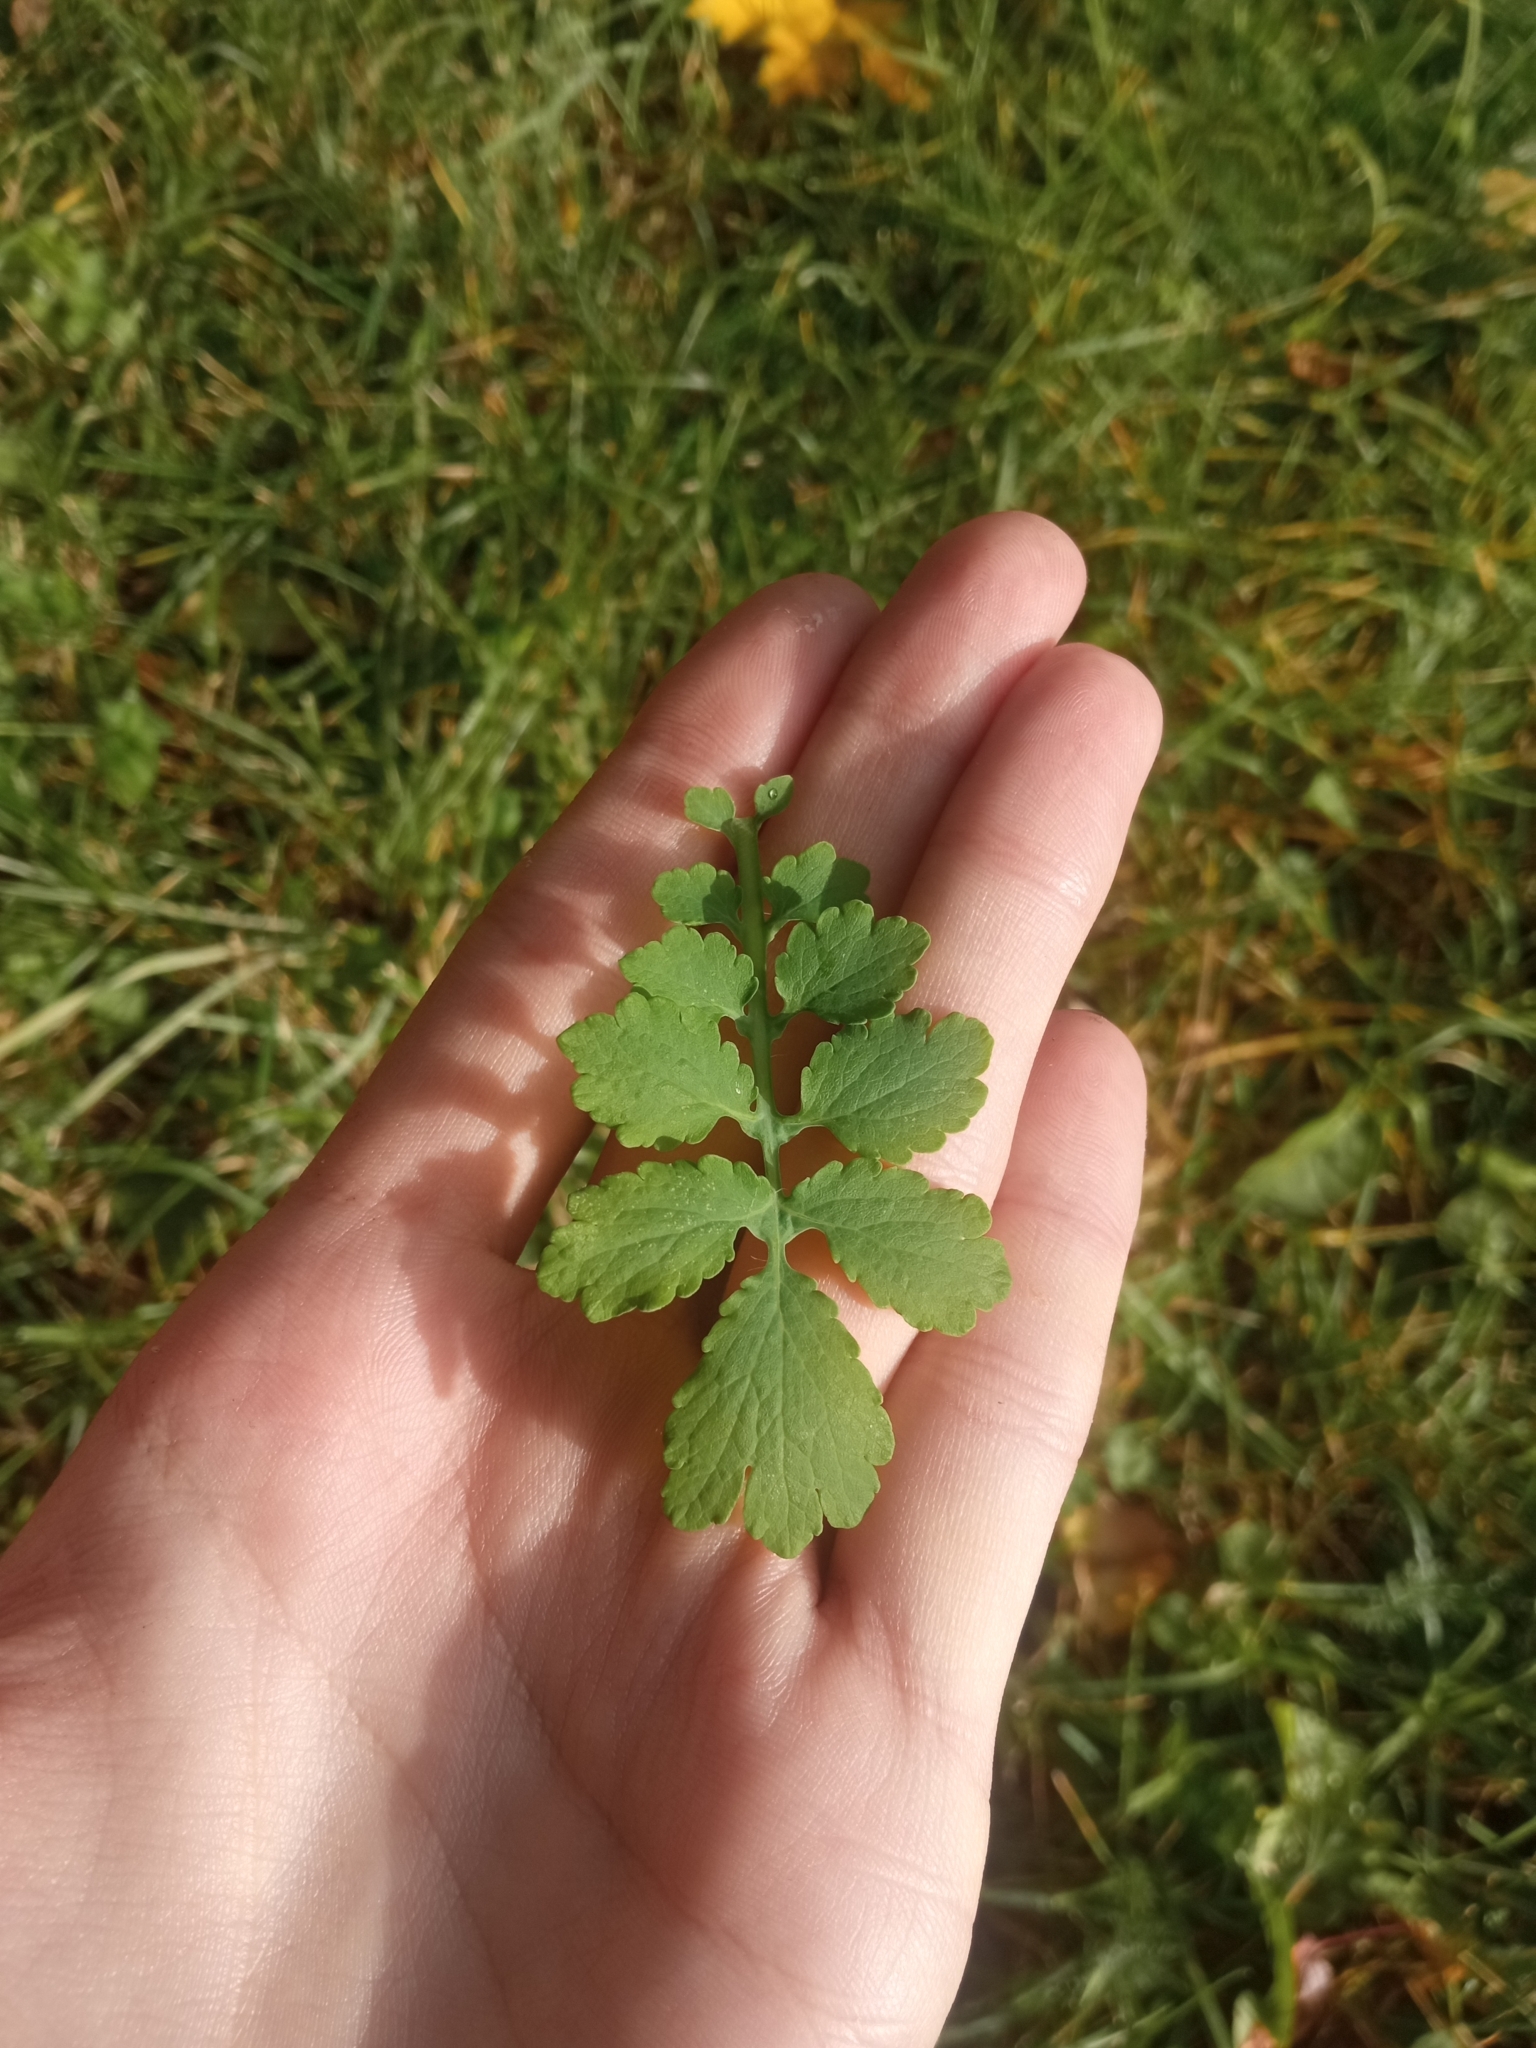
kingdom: Plantae
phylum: Tracheophyta
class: Magnoliopsida
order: Ranunculales
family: Papaveraceae
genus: Chelidonium
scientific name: Chelidonium majus
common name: Greater celandine
